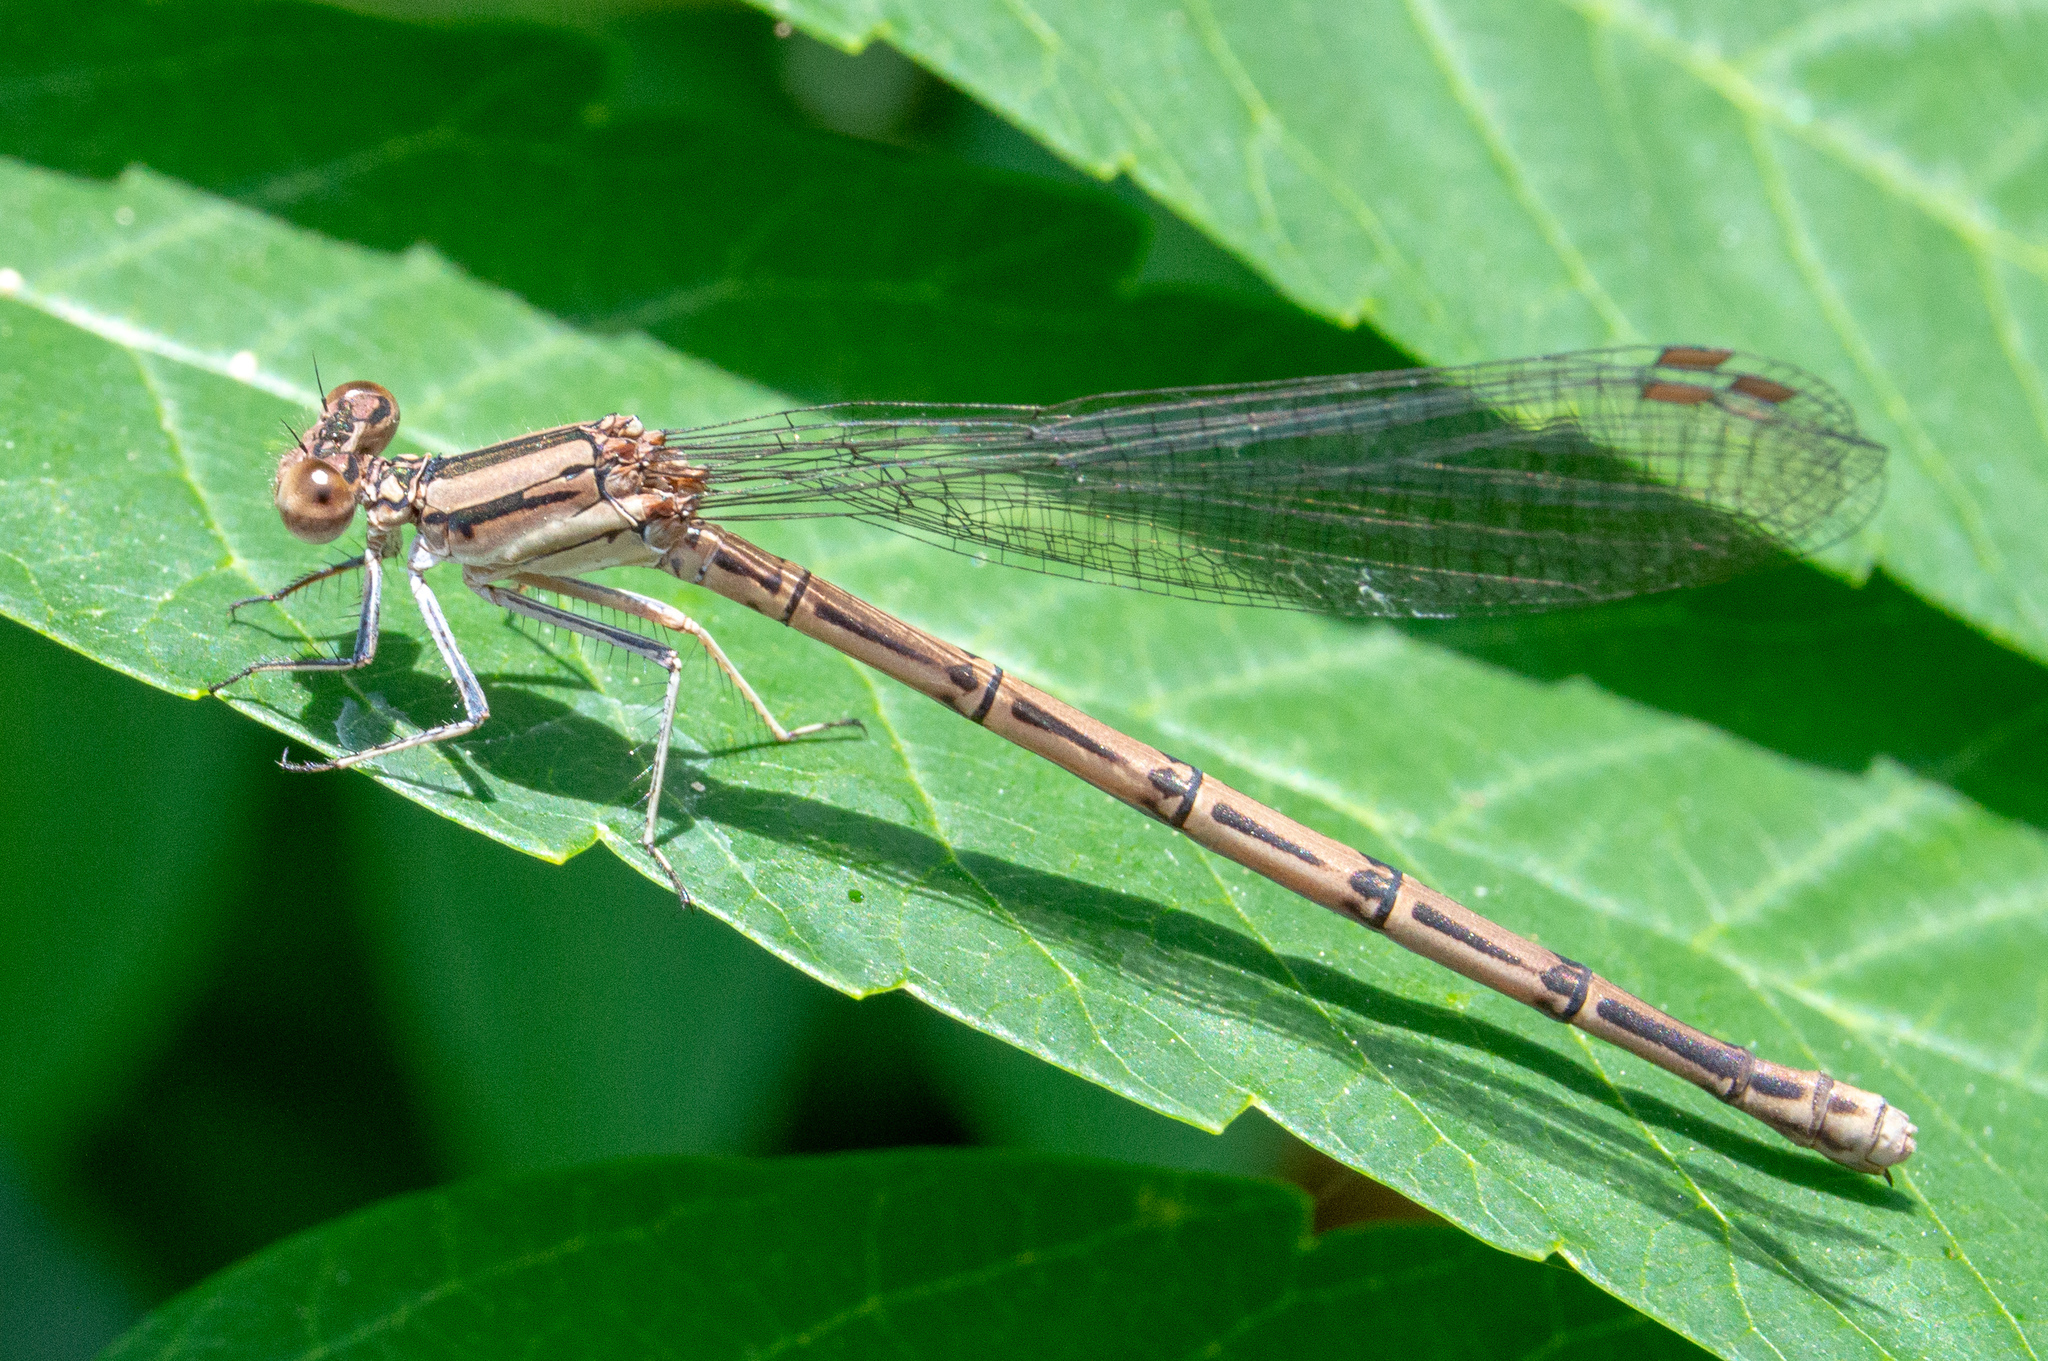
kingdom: Animalia
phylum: Arthropoda
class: Insecta
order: Odonata
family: Coenagrionidae
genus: Argia
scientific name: Argia fumipennis
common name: Variable dancer
